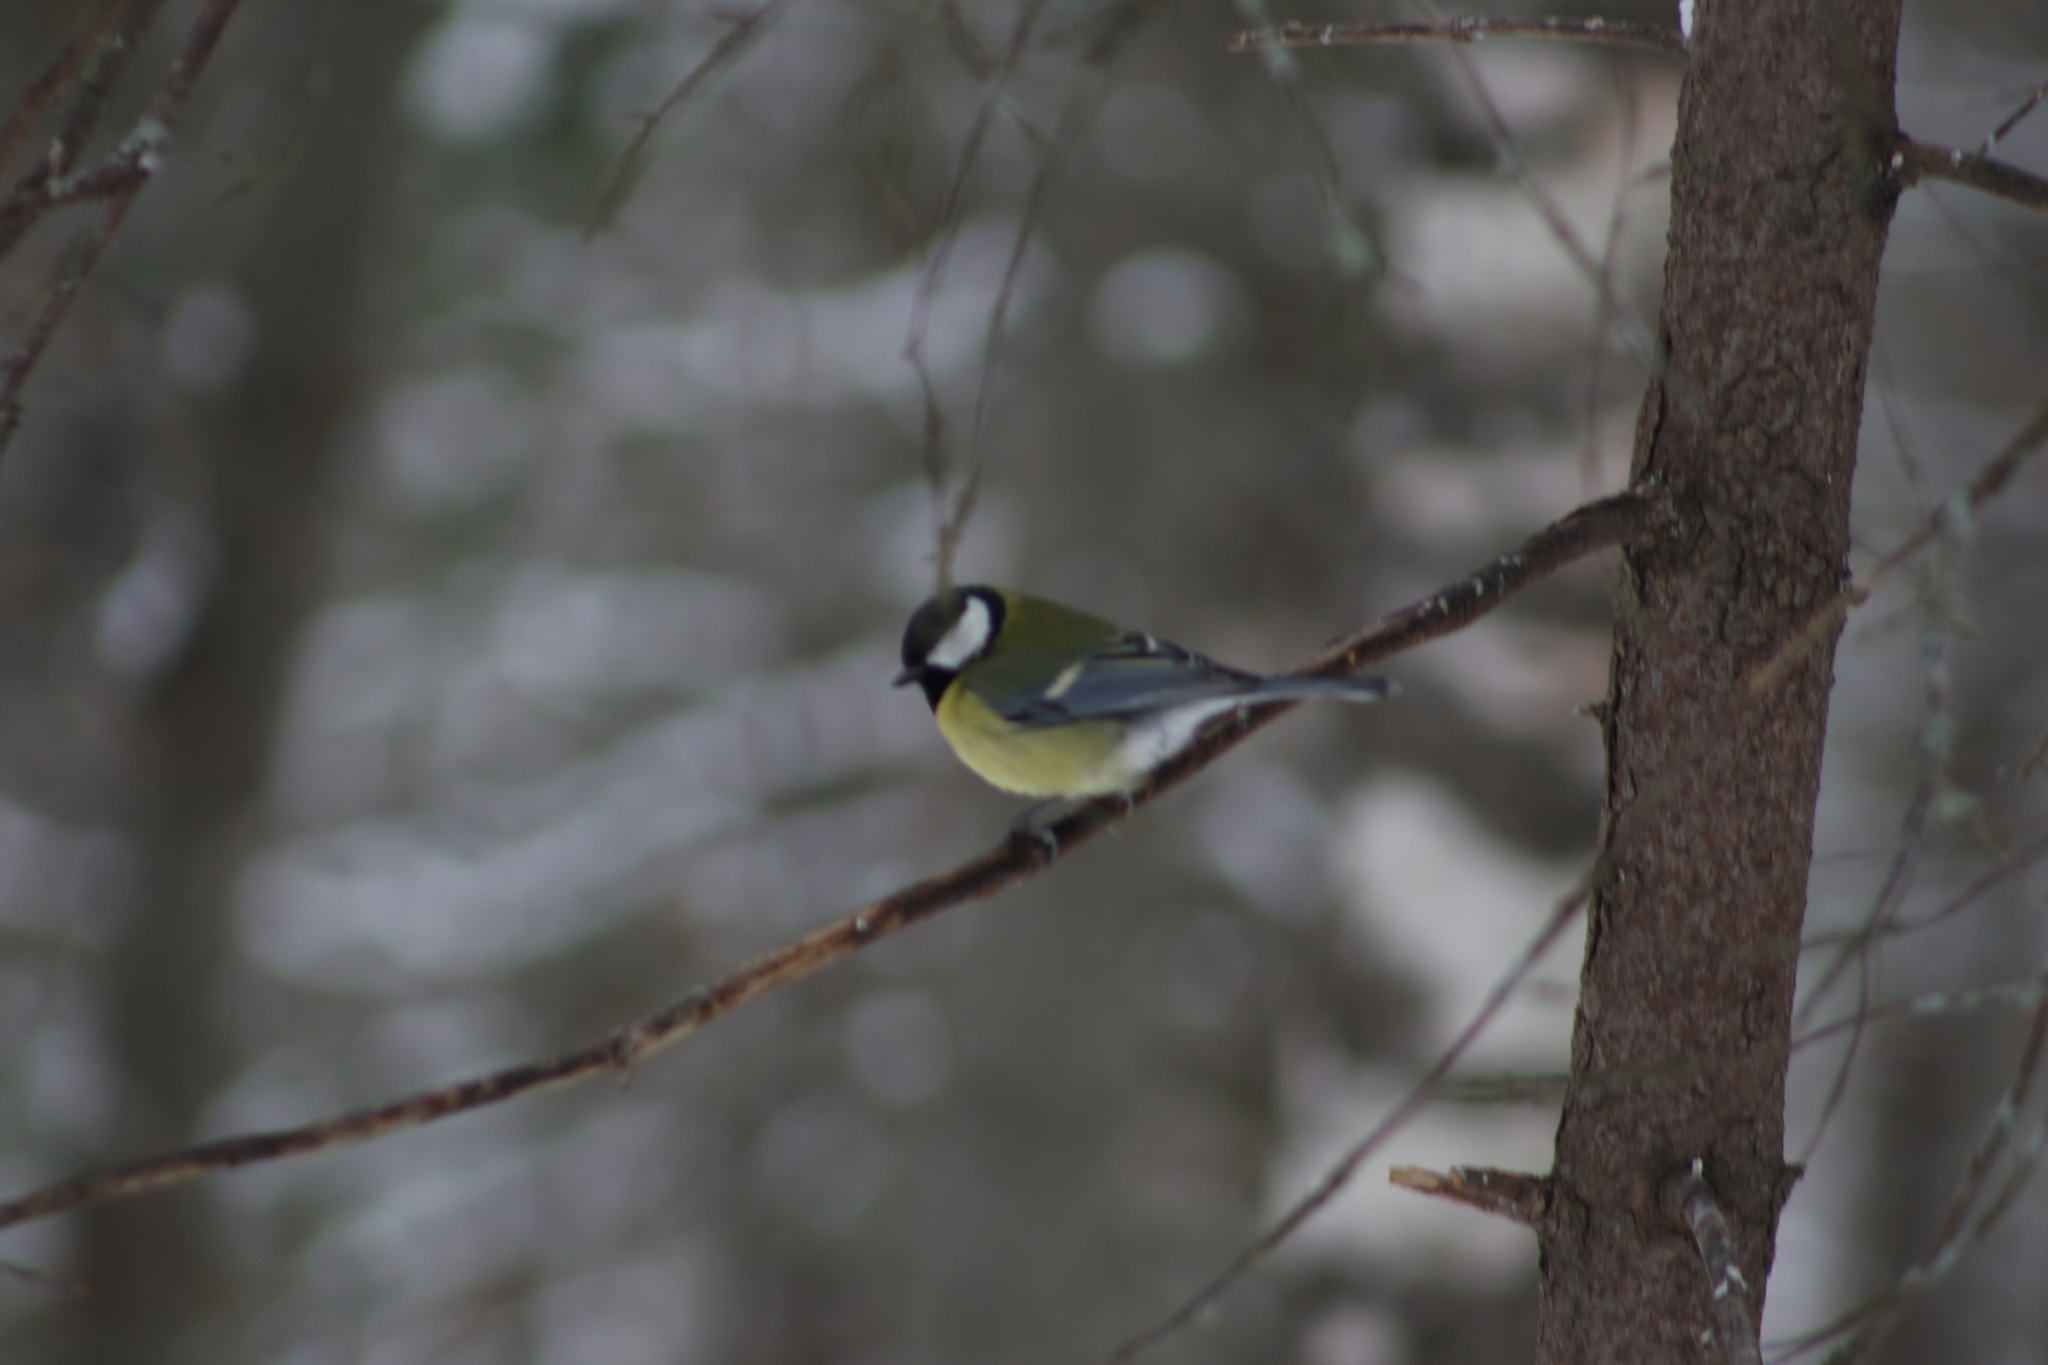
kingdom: Animalia
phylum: Chordata
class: Aves
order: Passeriformes
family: Paridae
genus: Parus
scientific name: Parus major
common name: Great tit
